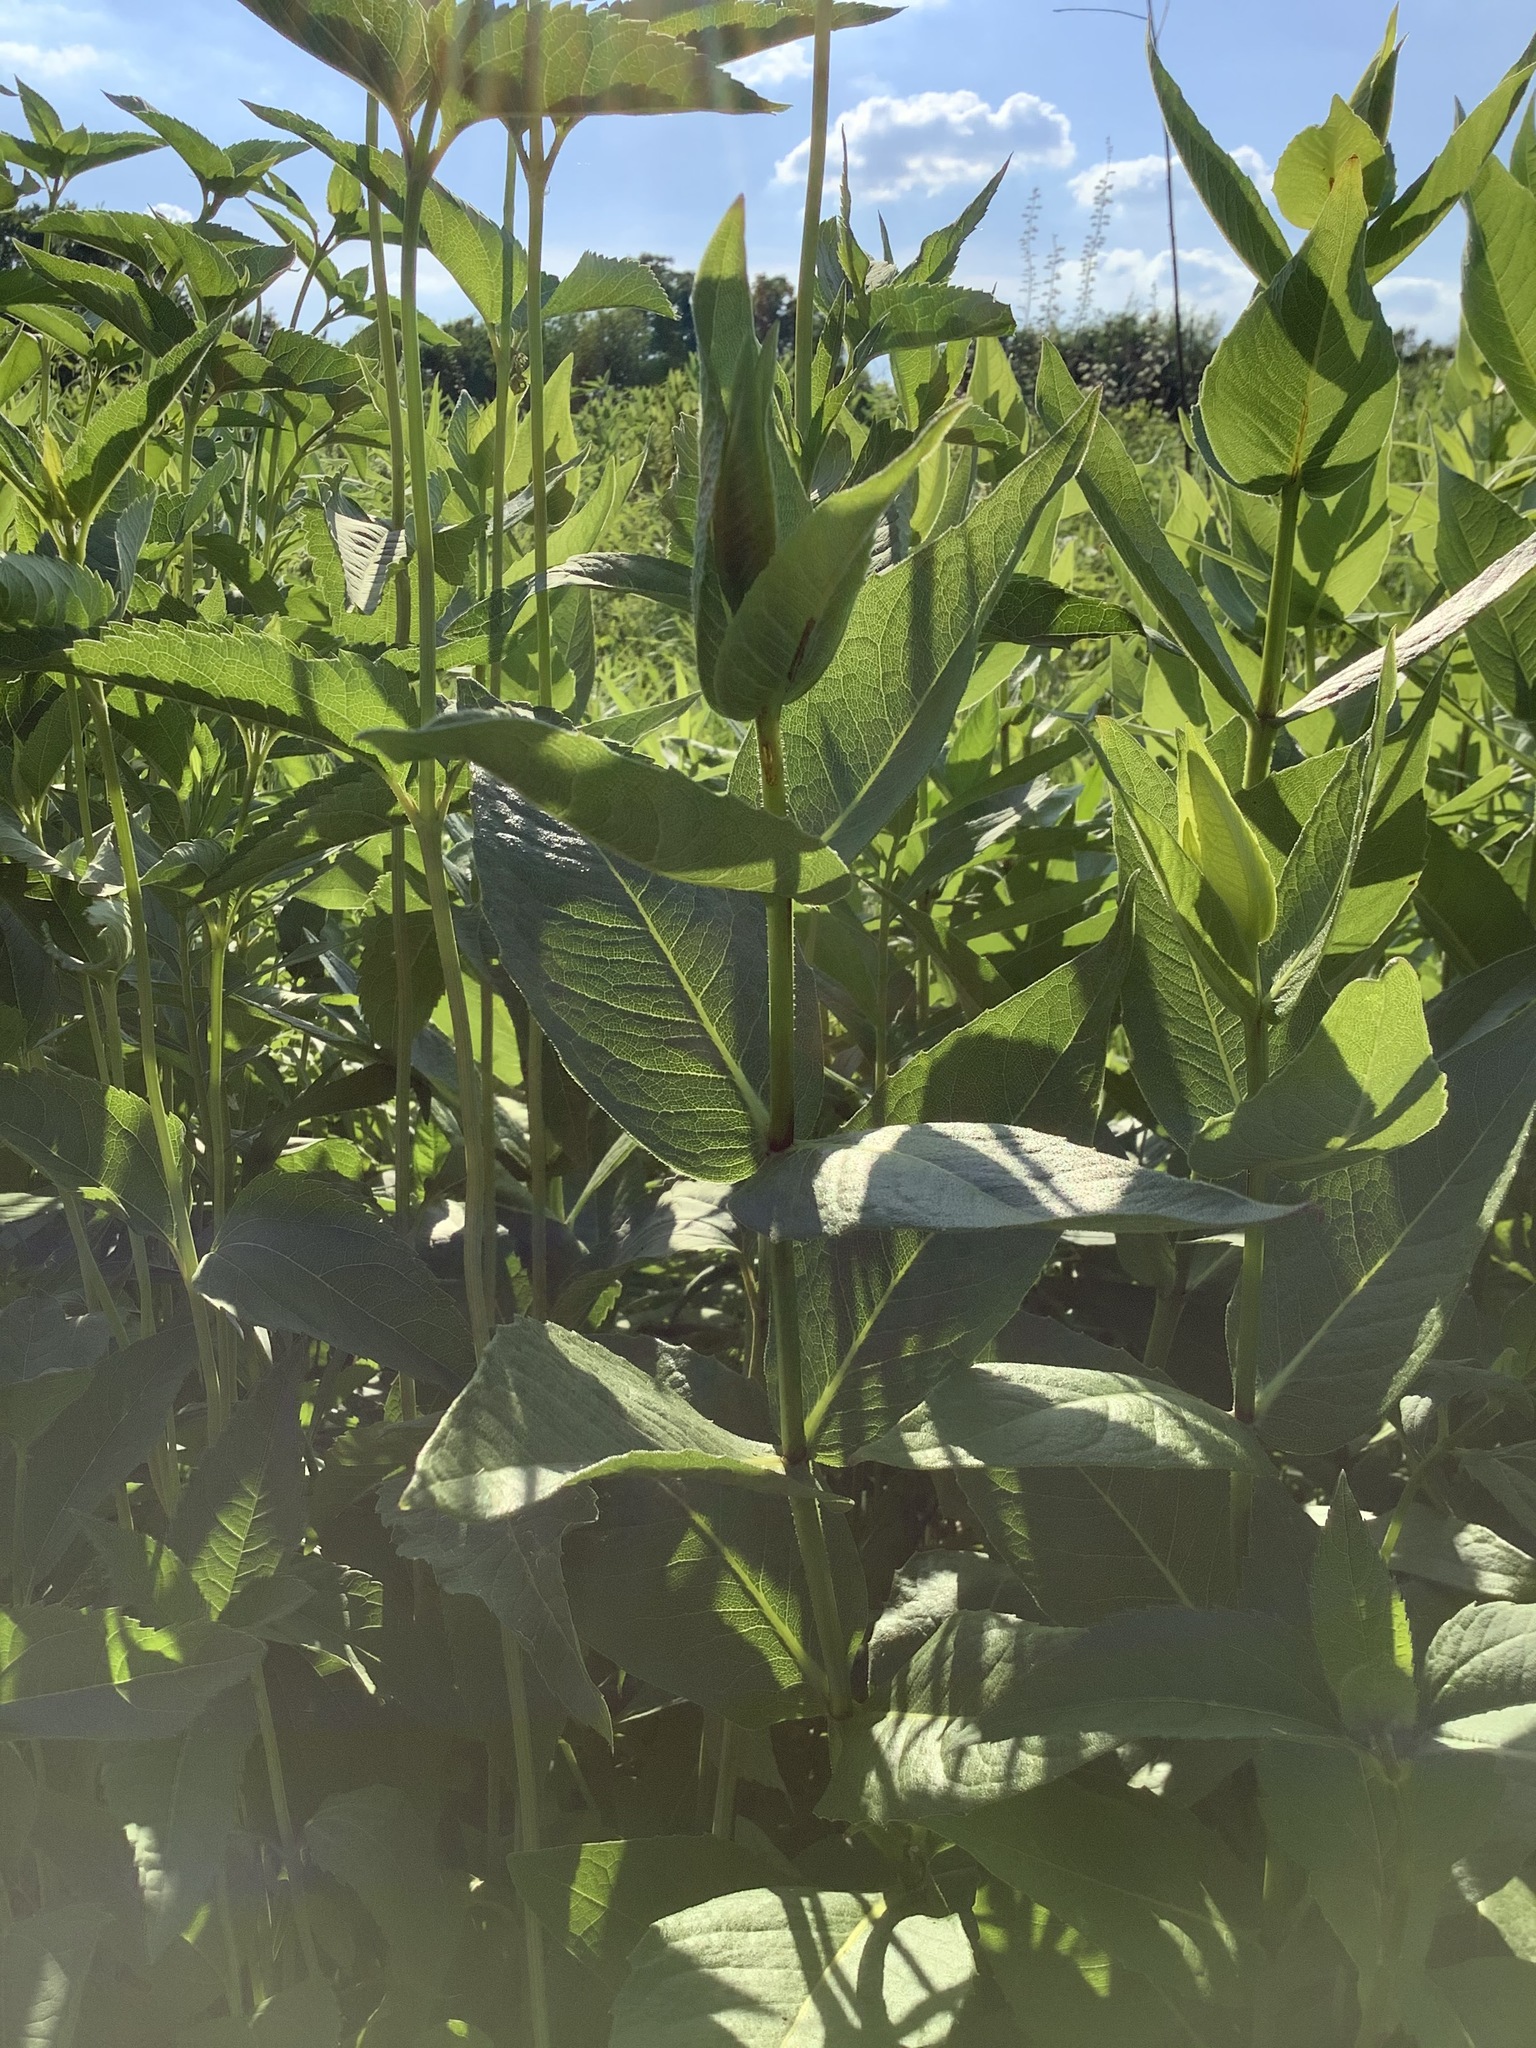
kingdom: Plantae
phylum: Tracheophyta
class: Magnoliopsida
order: Asterales
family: Asteraceae
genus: Silphium
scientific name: Silphium integrifolium
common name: Whole-leaf rosinweed
